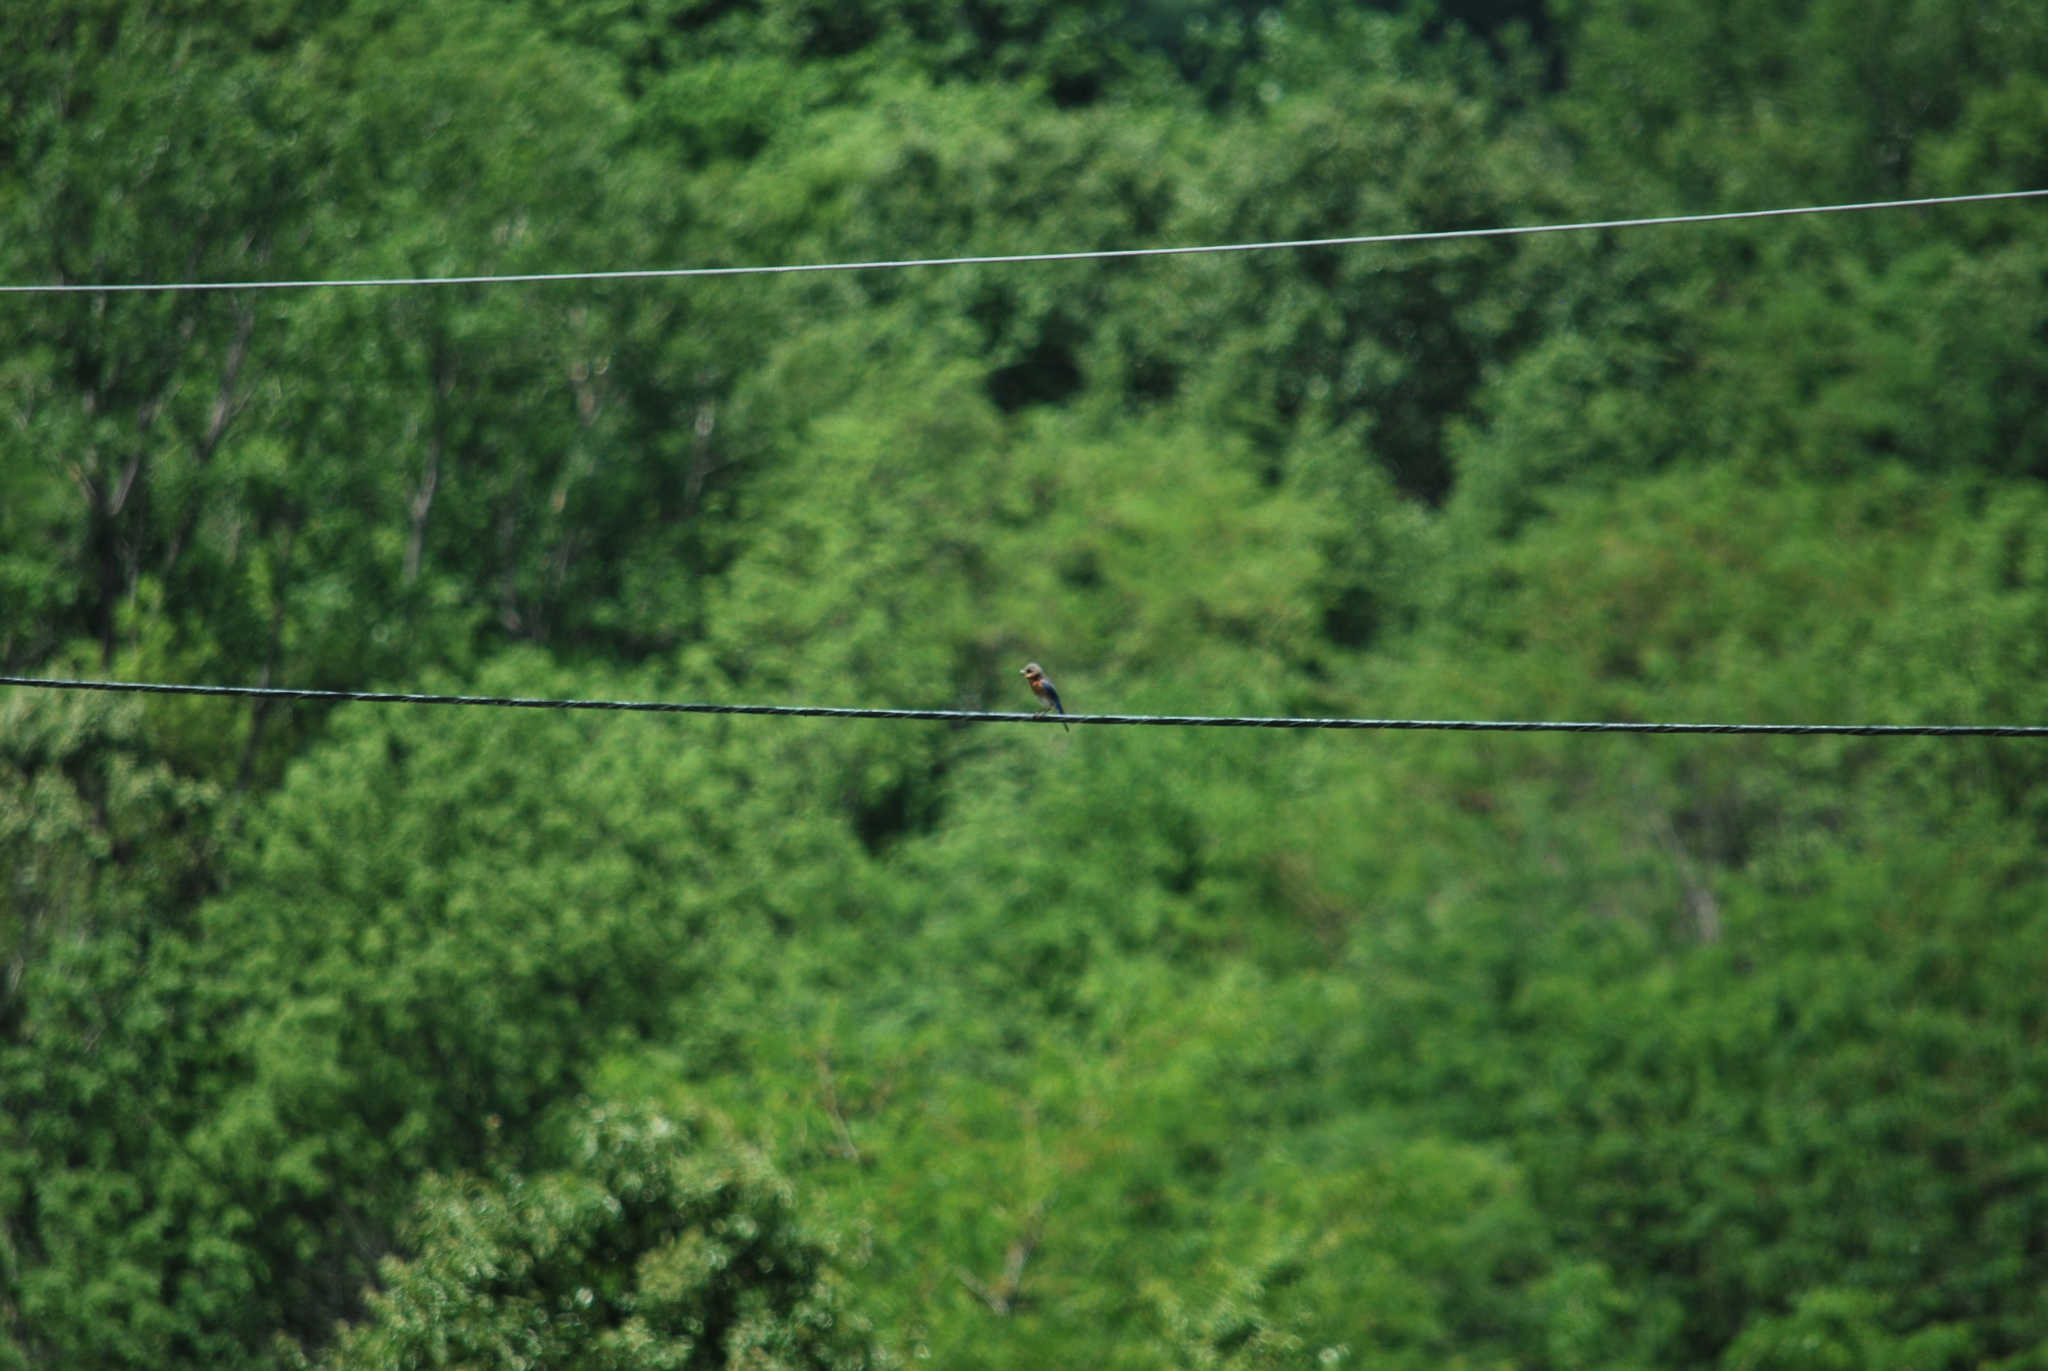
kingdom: Animalia
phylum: Chordata
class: Aves
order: Passeriformes
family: Turdidae
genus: Sialia
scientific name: Sialia sialis
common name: Eastern bluebird
